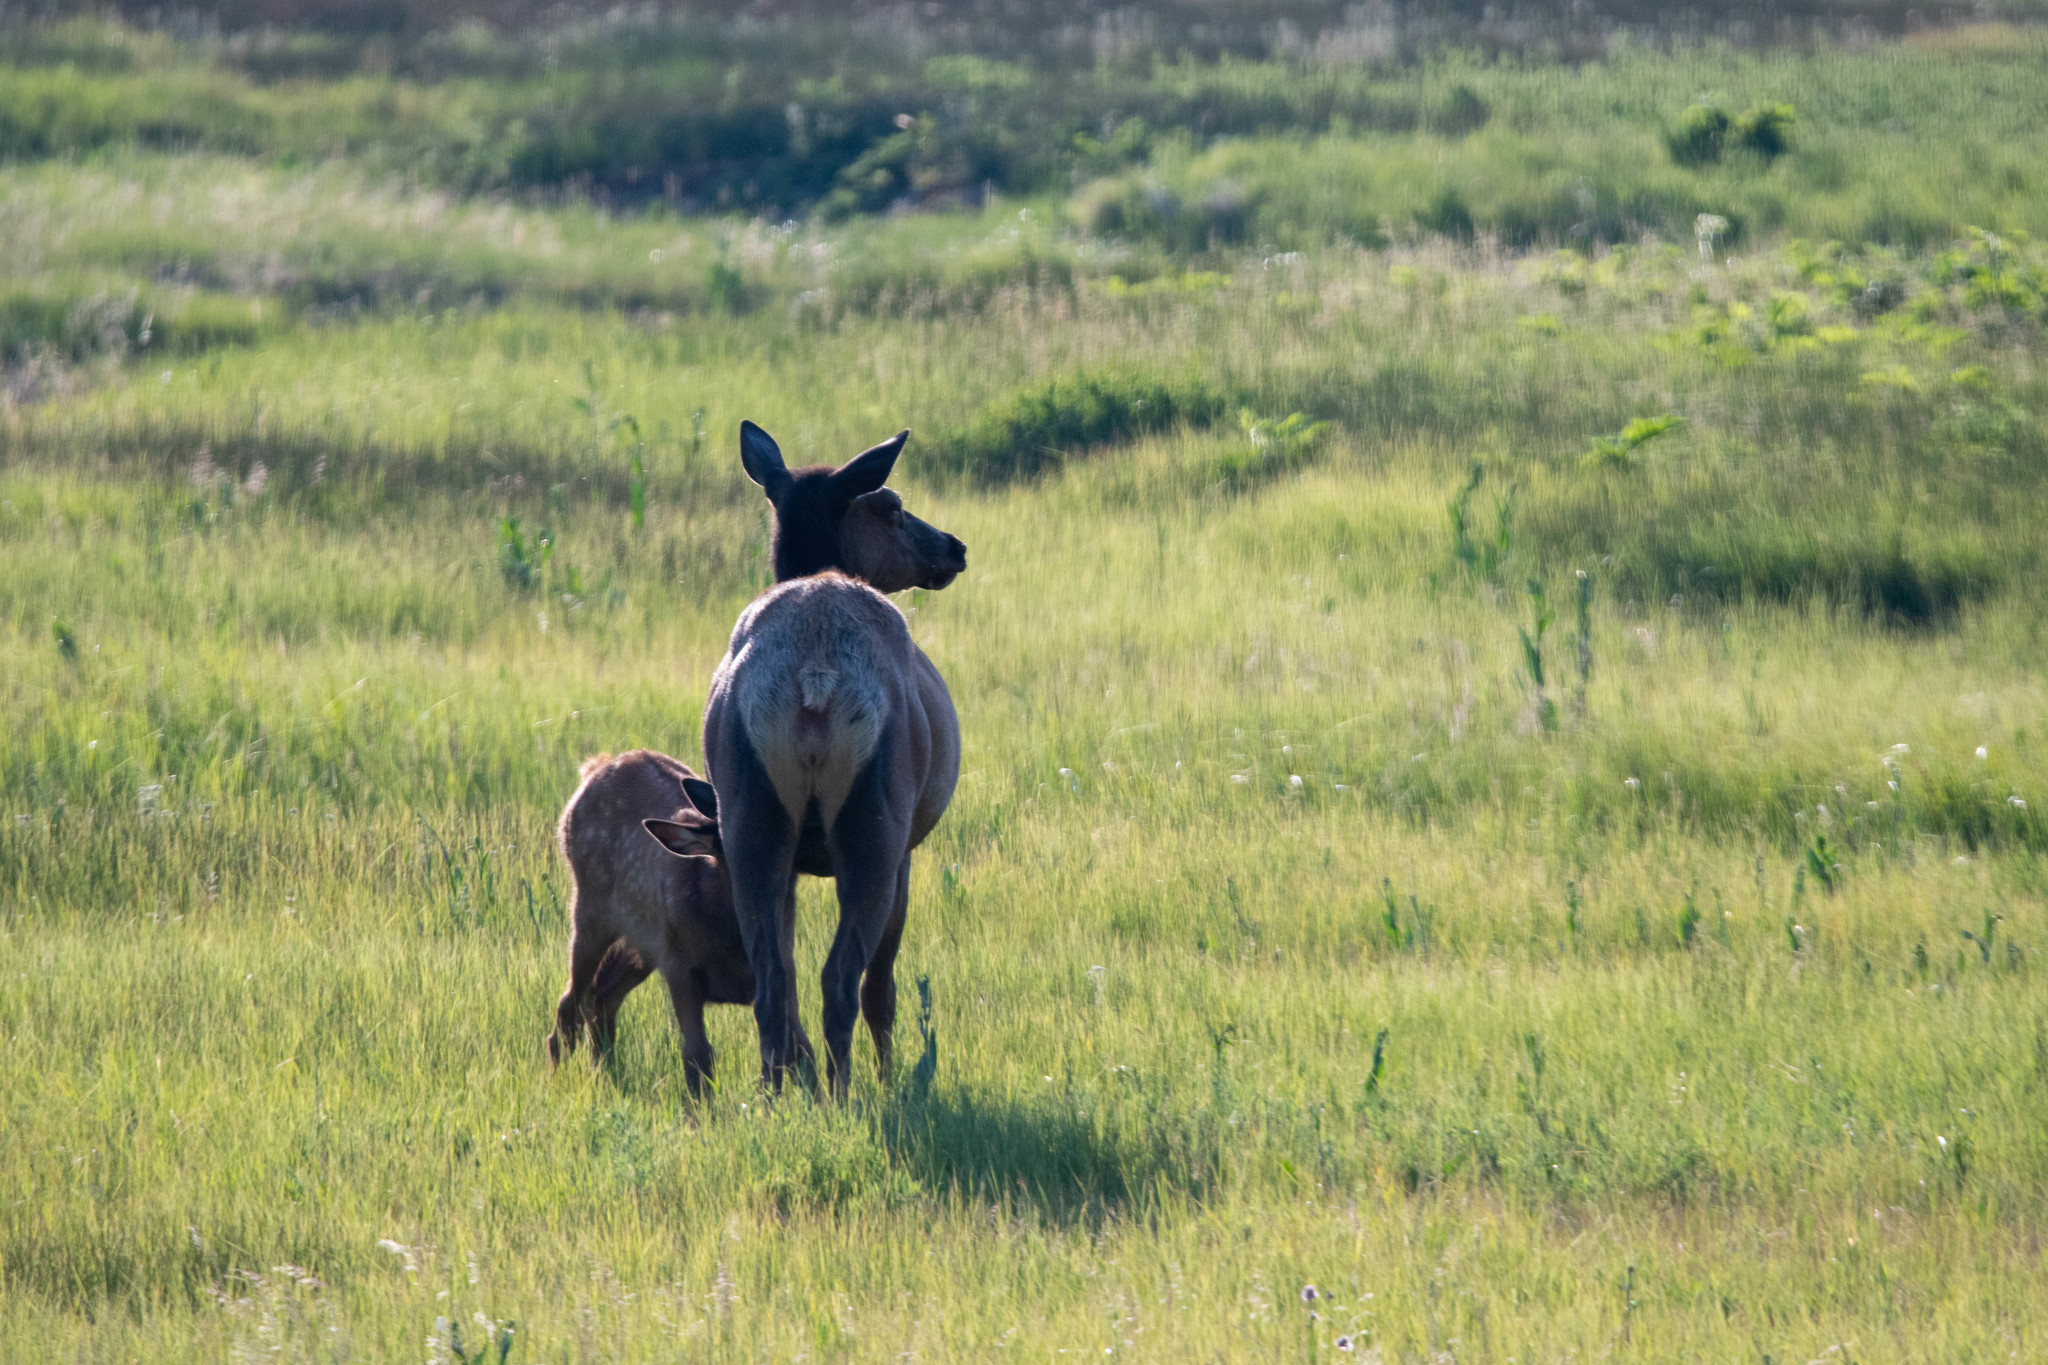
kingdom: Animalia
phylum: Chordata
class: Mammalia
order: Artiodactyla
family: Cervidae
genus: Cervus
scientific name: Cervus elaphus
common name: Red deer
